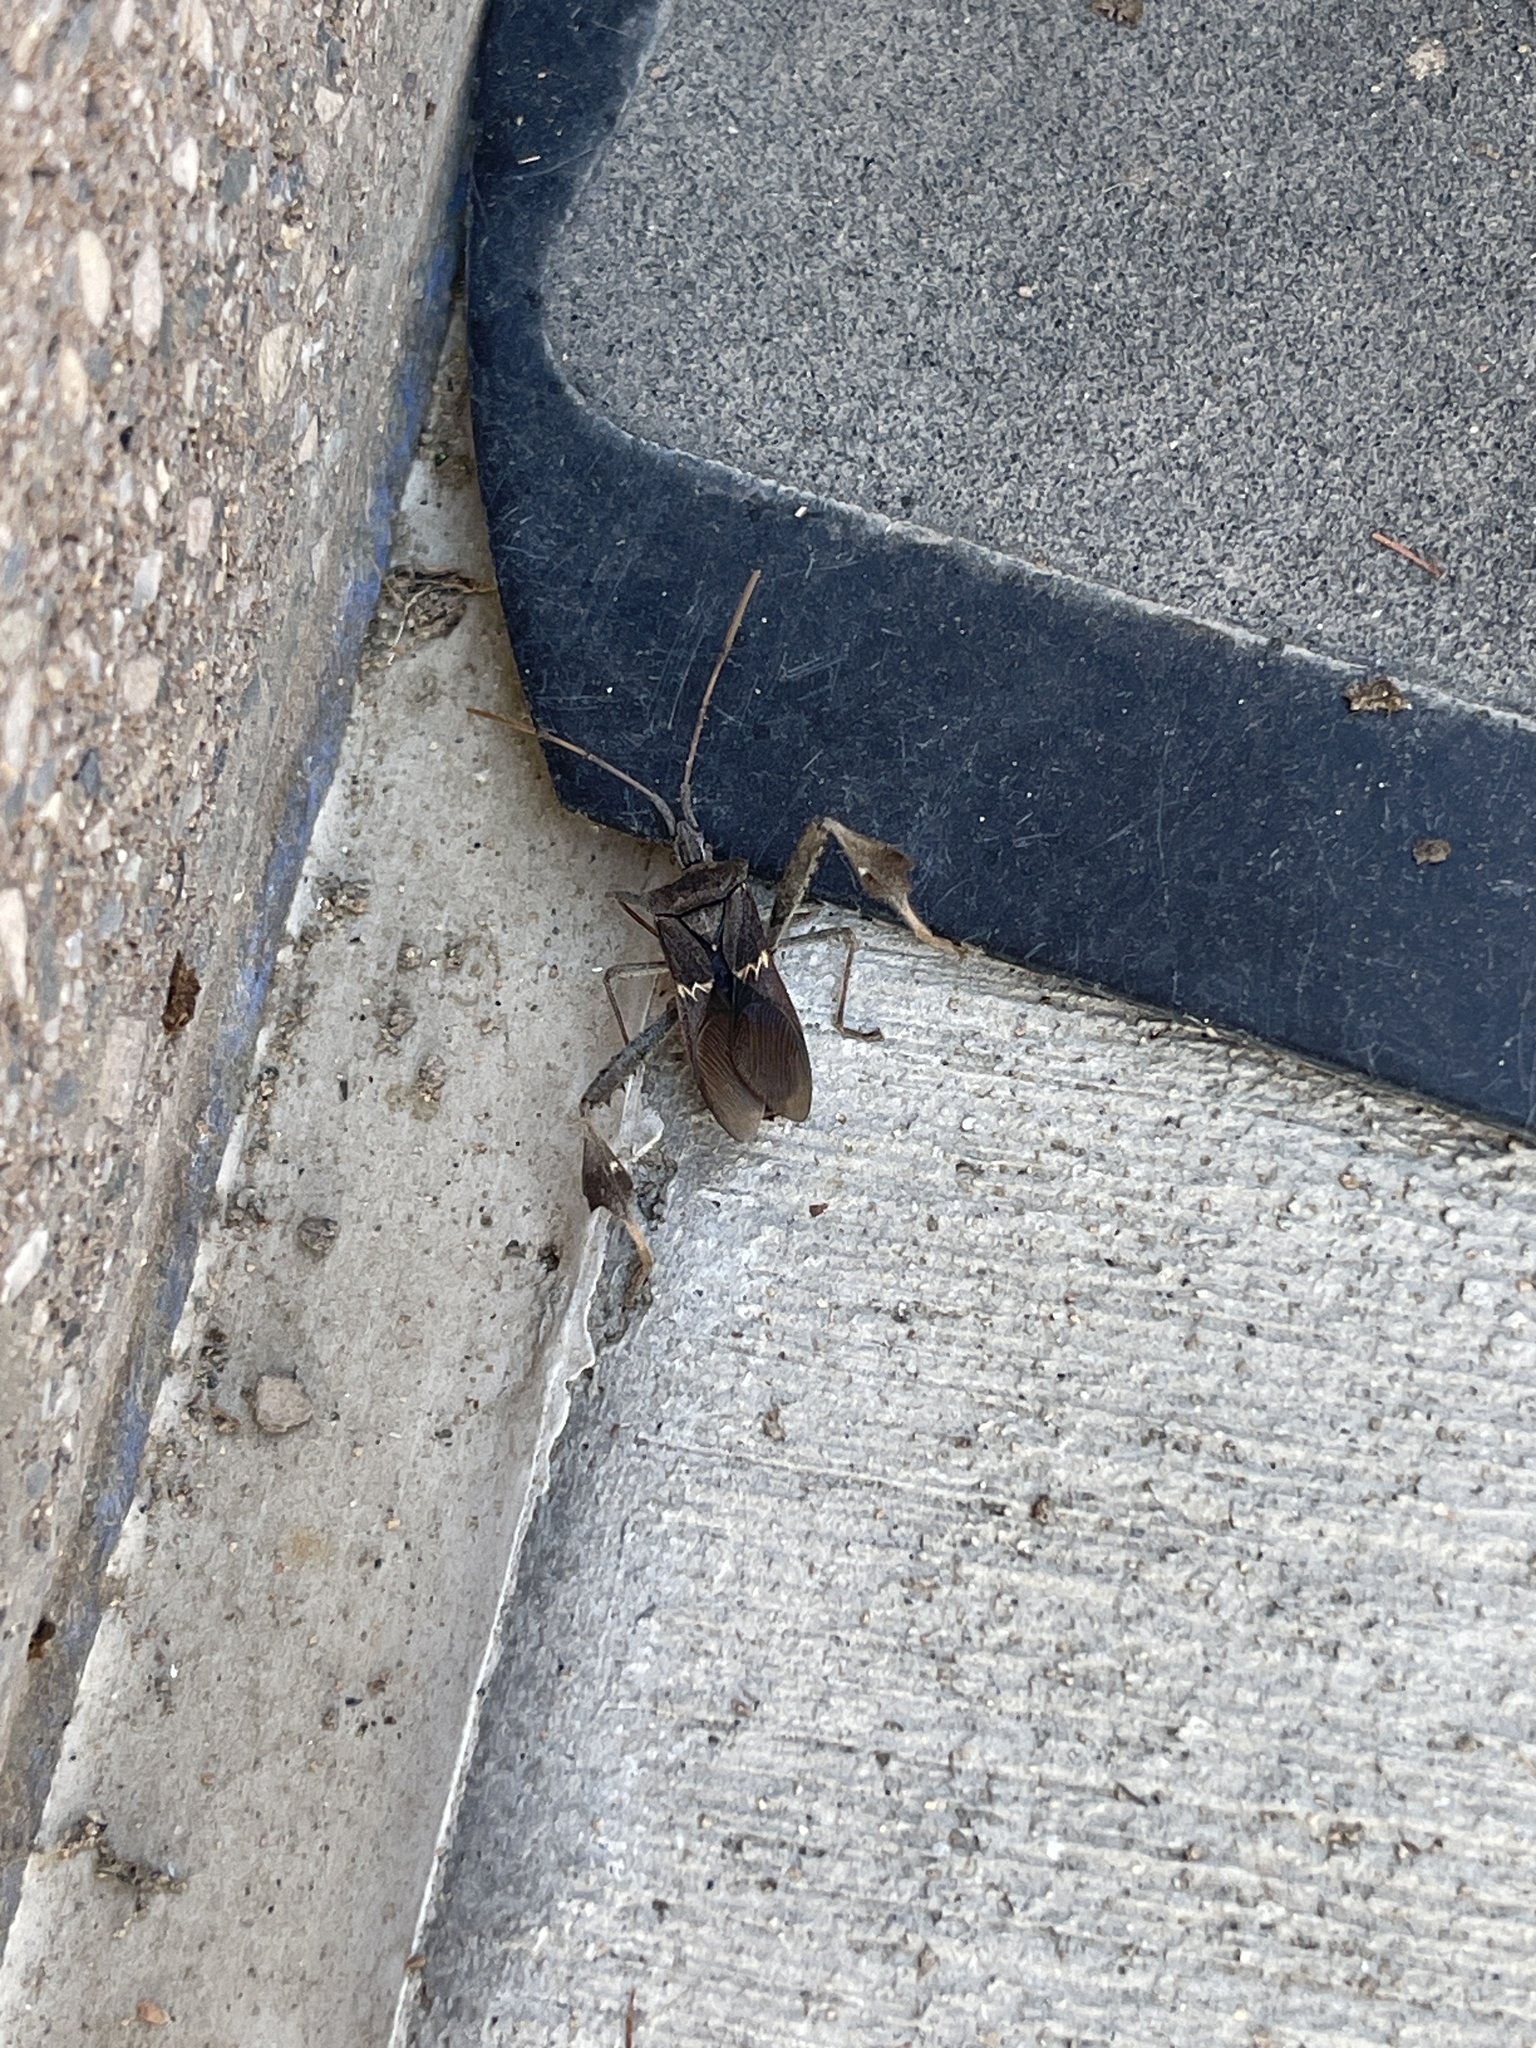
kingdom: Animalia
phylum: Arthropoda
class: Insecta
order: Hemiptera
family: Coreidae
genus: Leptoglossus
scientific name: Leptoglossus zonatus
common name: Large-legged bug
